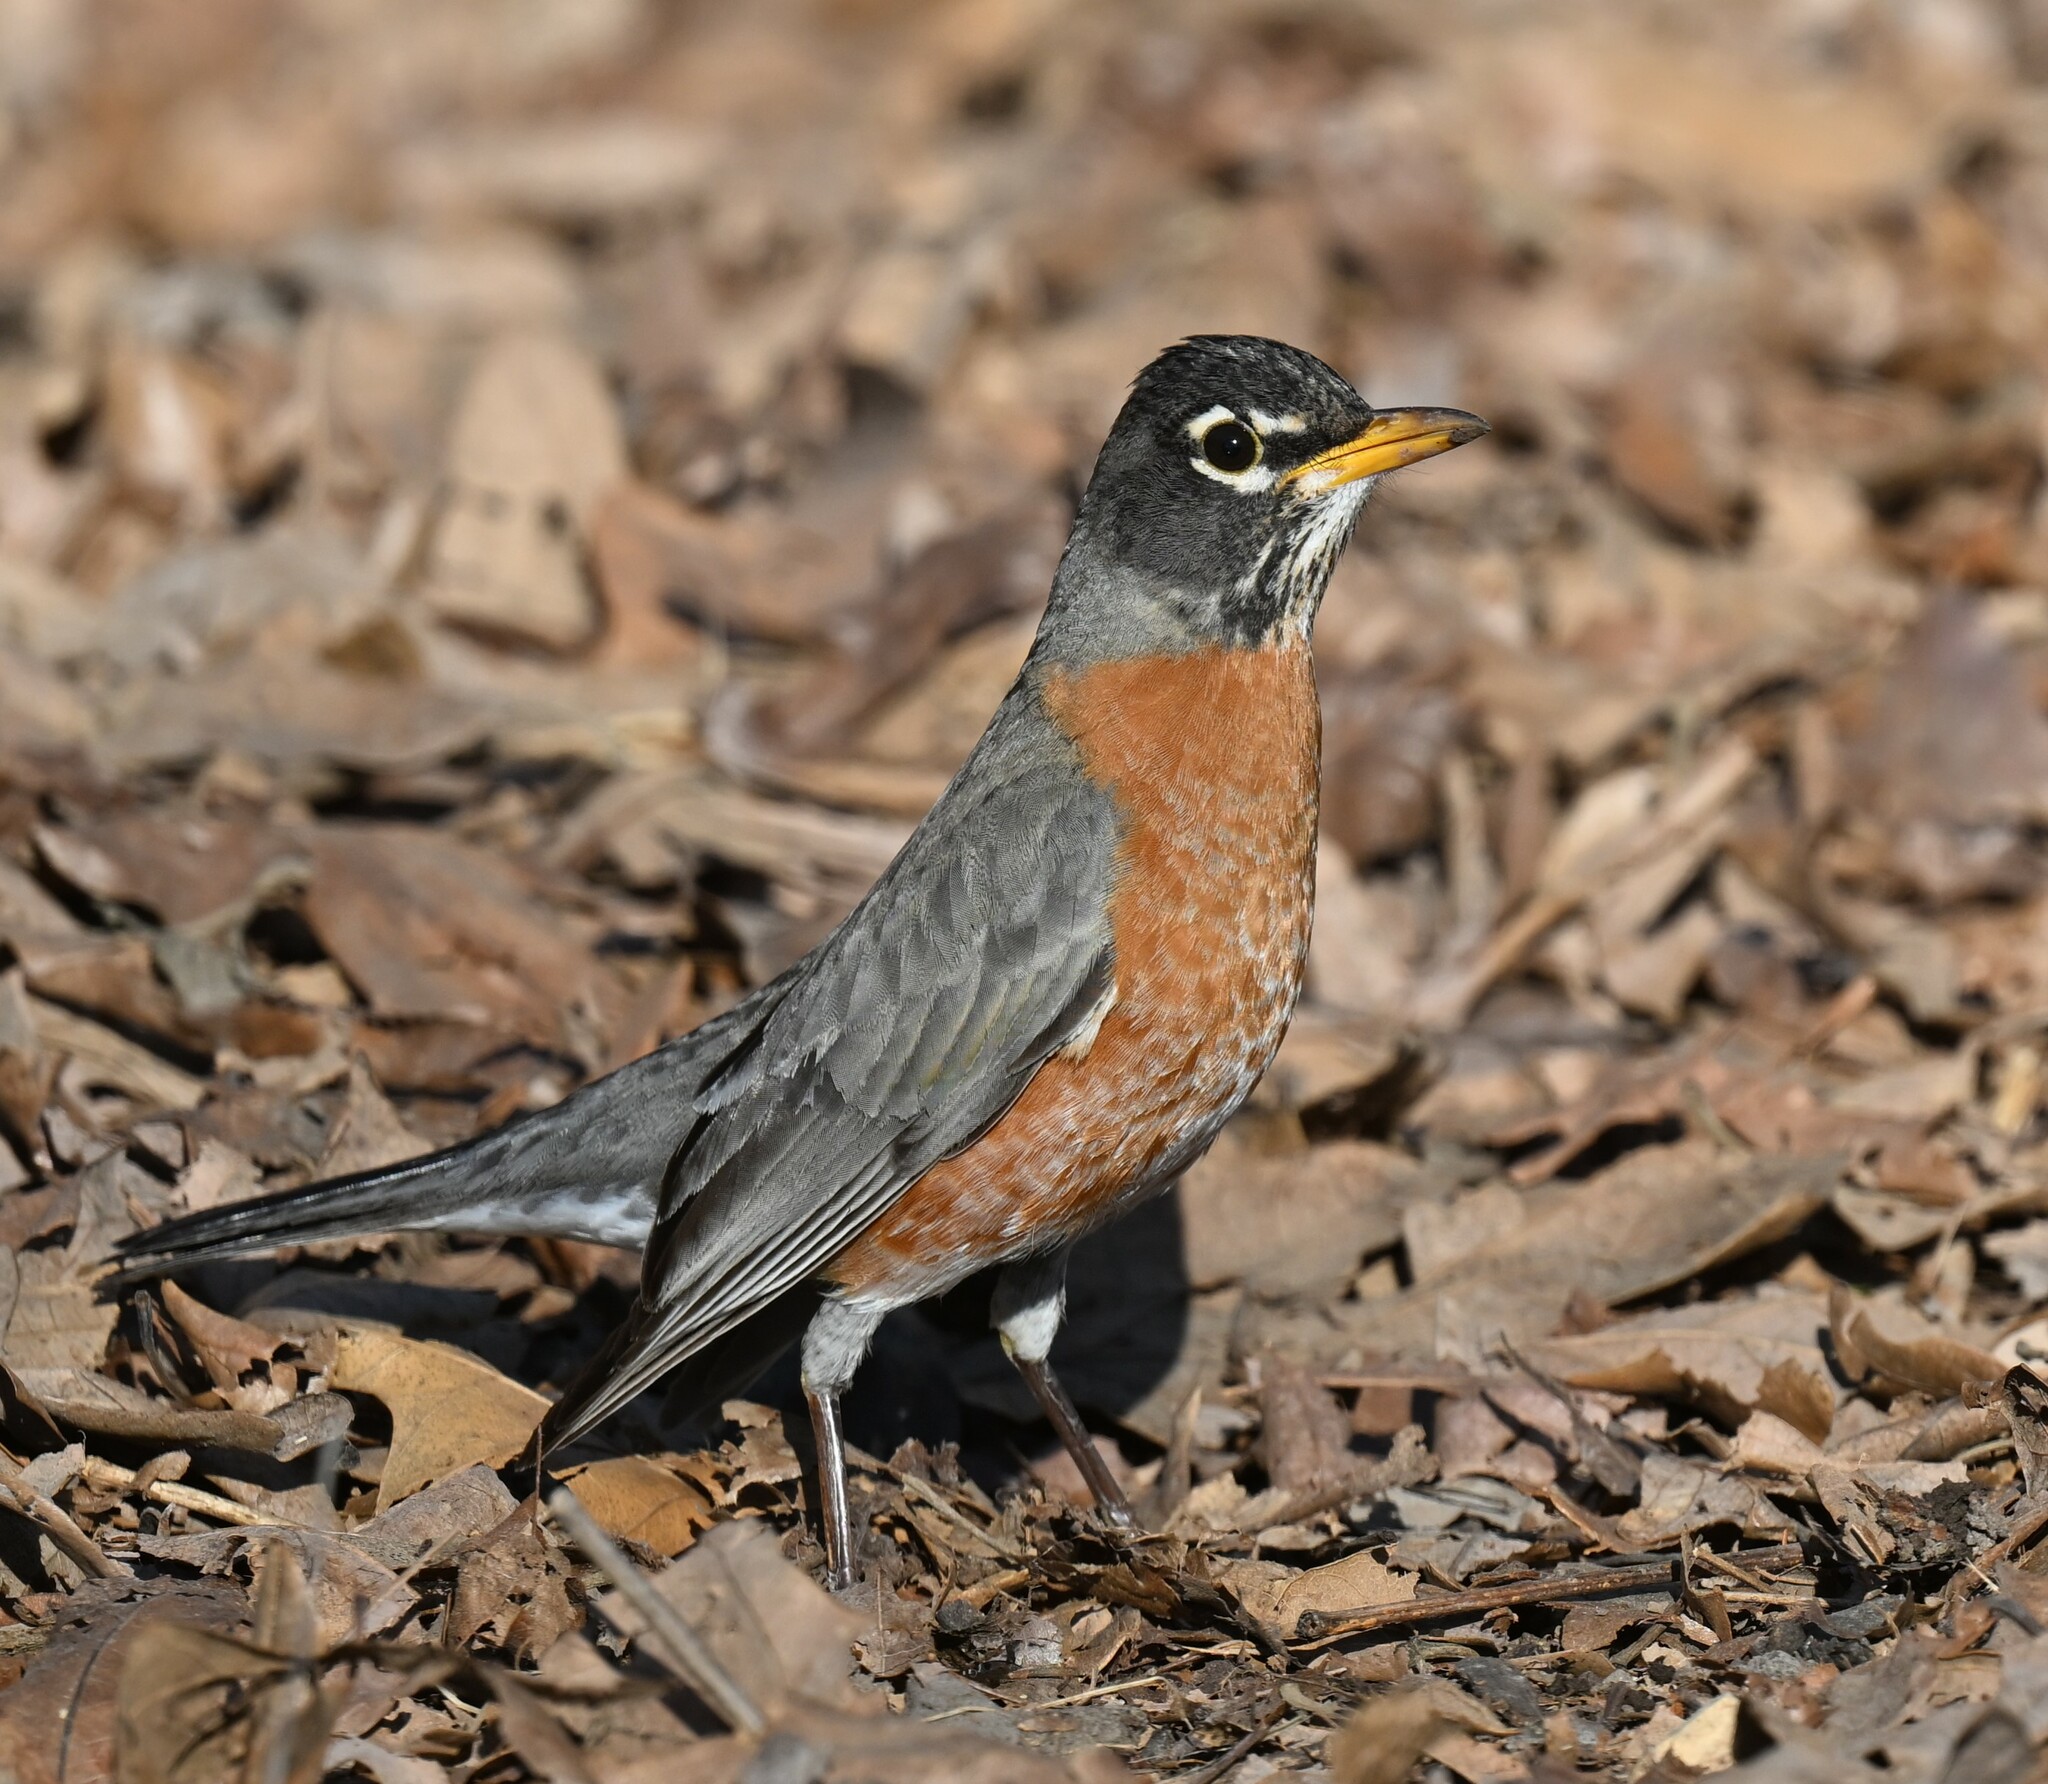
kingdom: Animalia
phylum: Chordata
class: Aves
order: Passeriformes
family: Turdidae
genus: Turdus
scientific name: Turdus migratorius
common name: American robin
